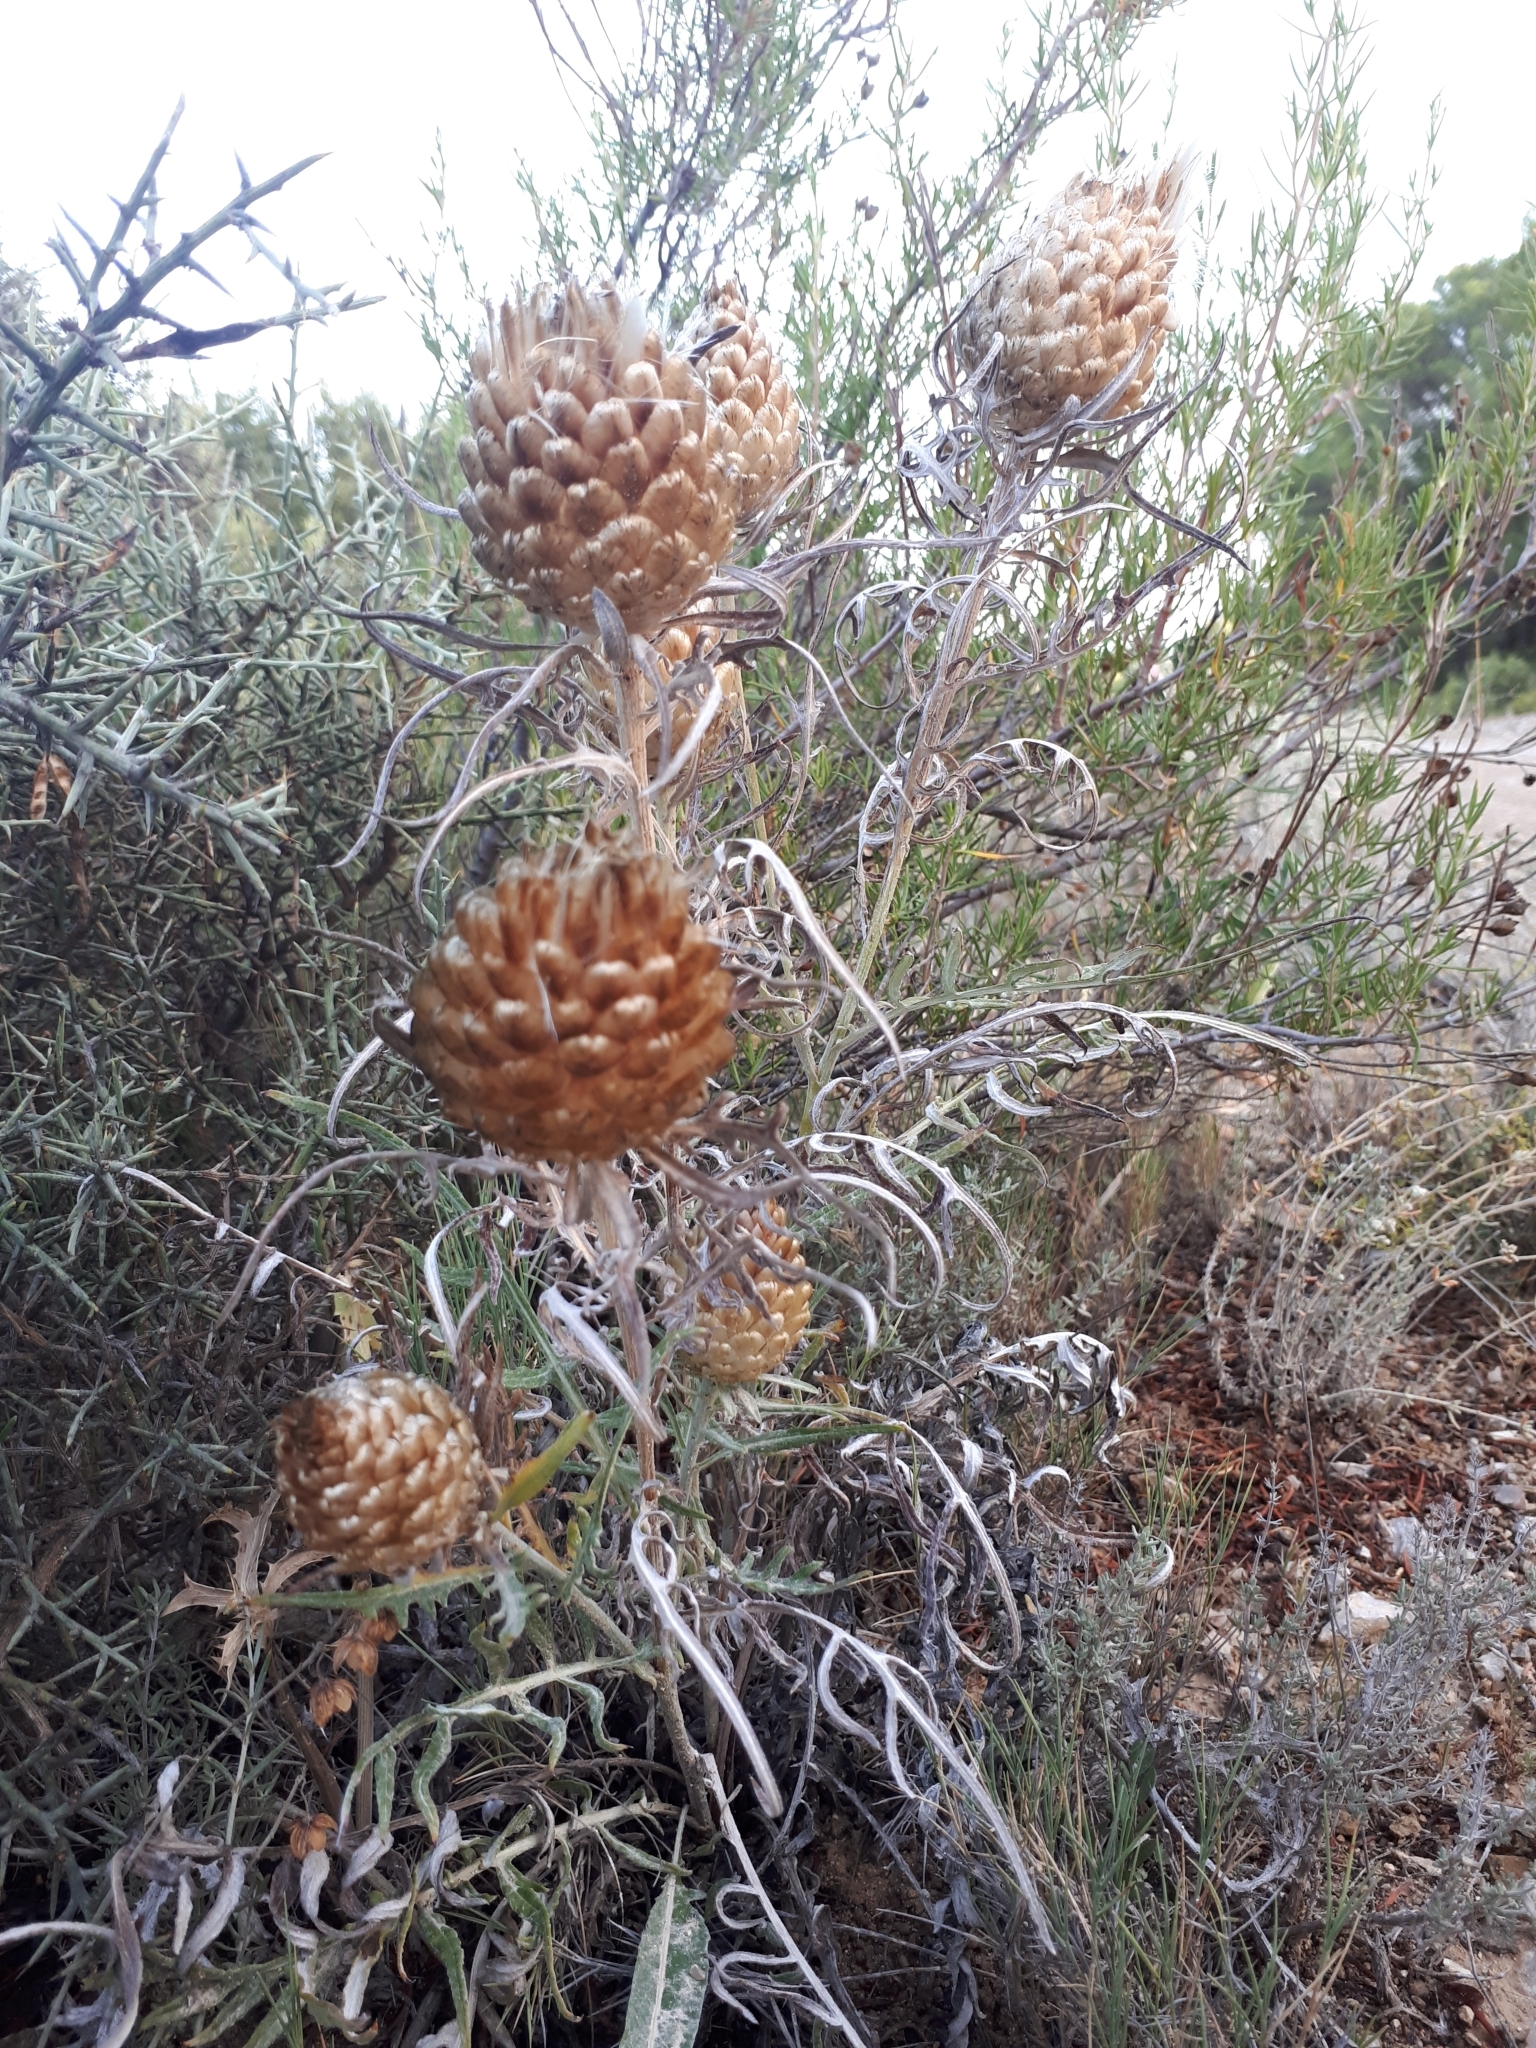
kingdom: Plantae
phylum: Tracheophyta
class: Magnoliopsida
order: Asterales
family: Asteraceae
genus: Leuzea
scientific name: Leuzea conifera
